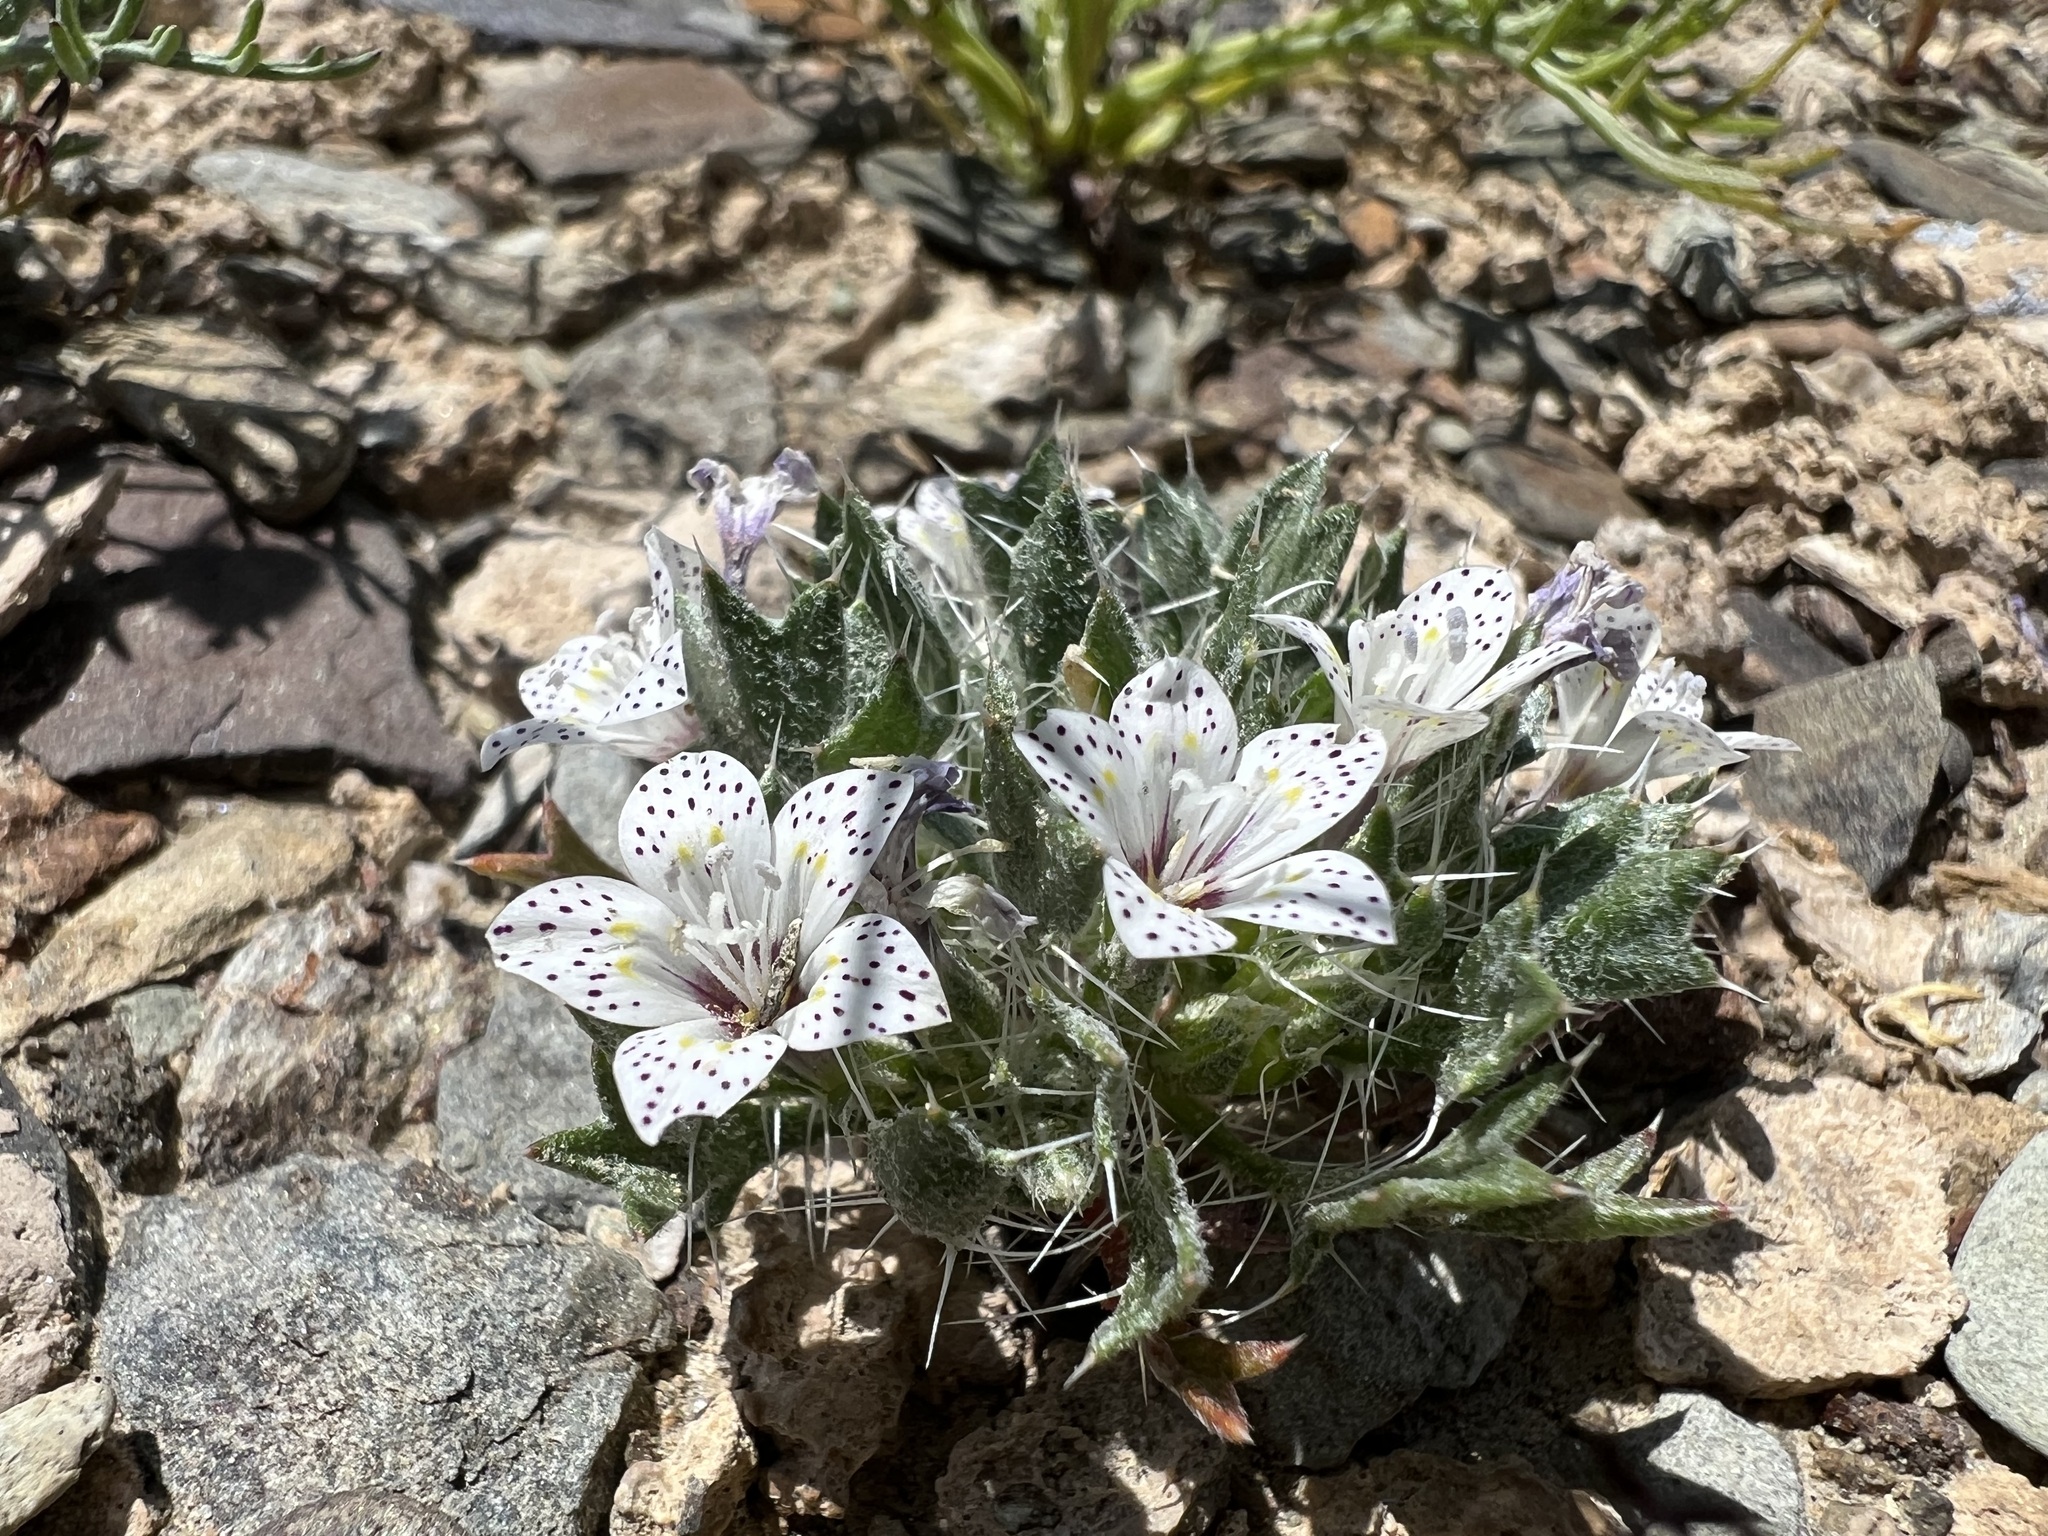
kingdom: Plantae
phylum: Tracheophyta
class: Magnoliopsida
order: Ericales
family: Polemoniaceae
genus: Langloisia
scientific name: Langloisia setosissima
